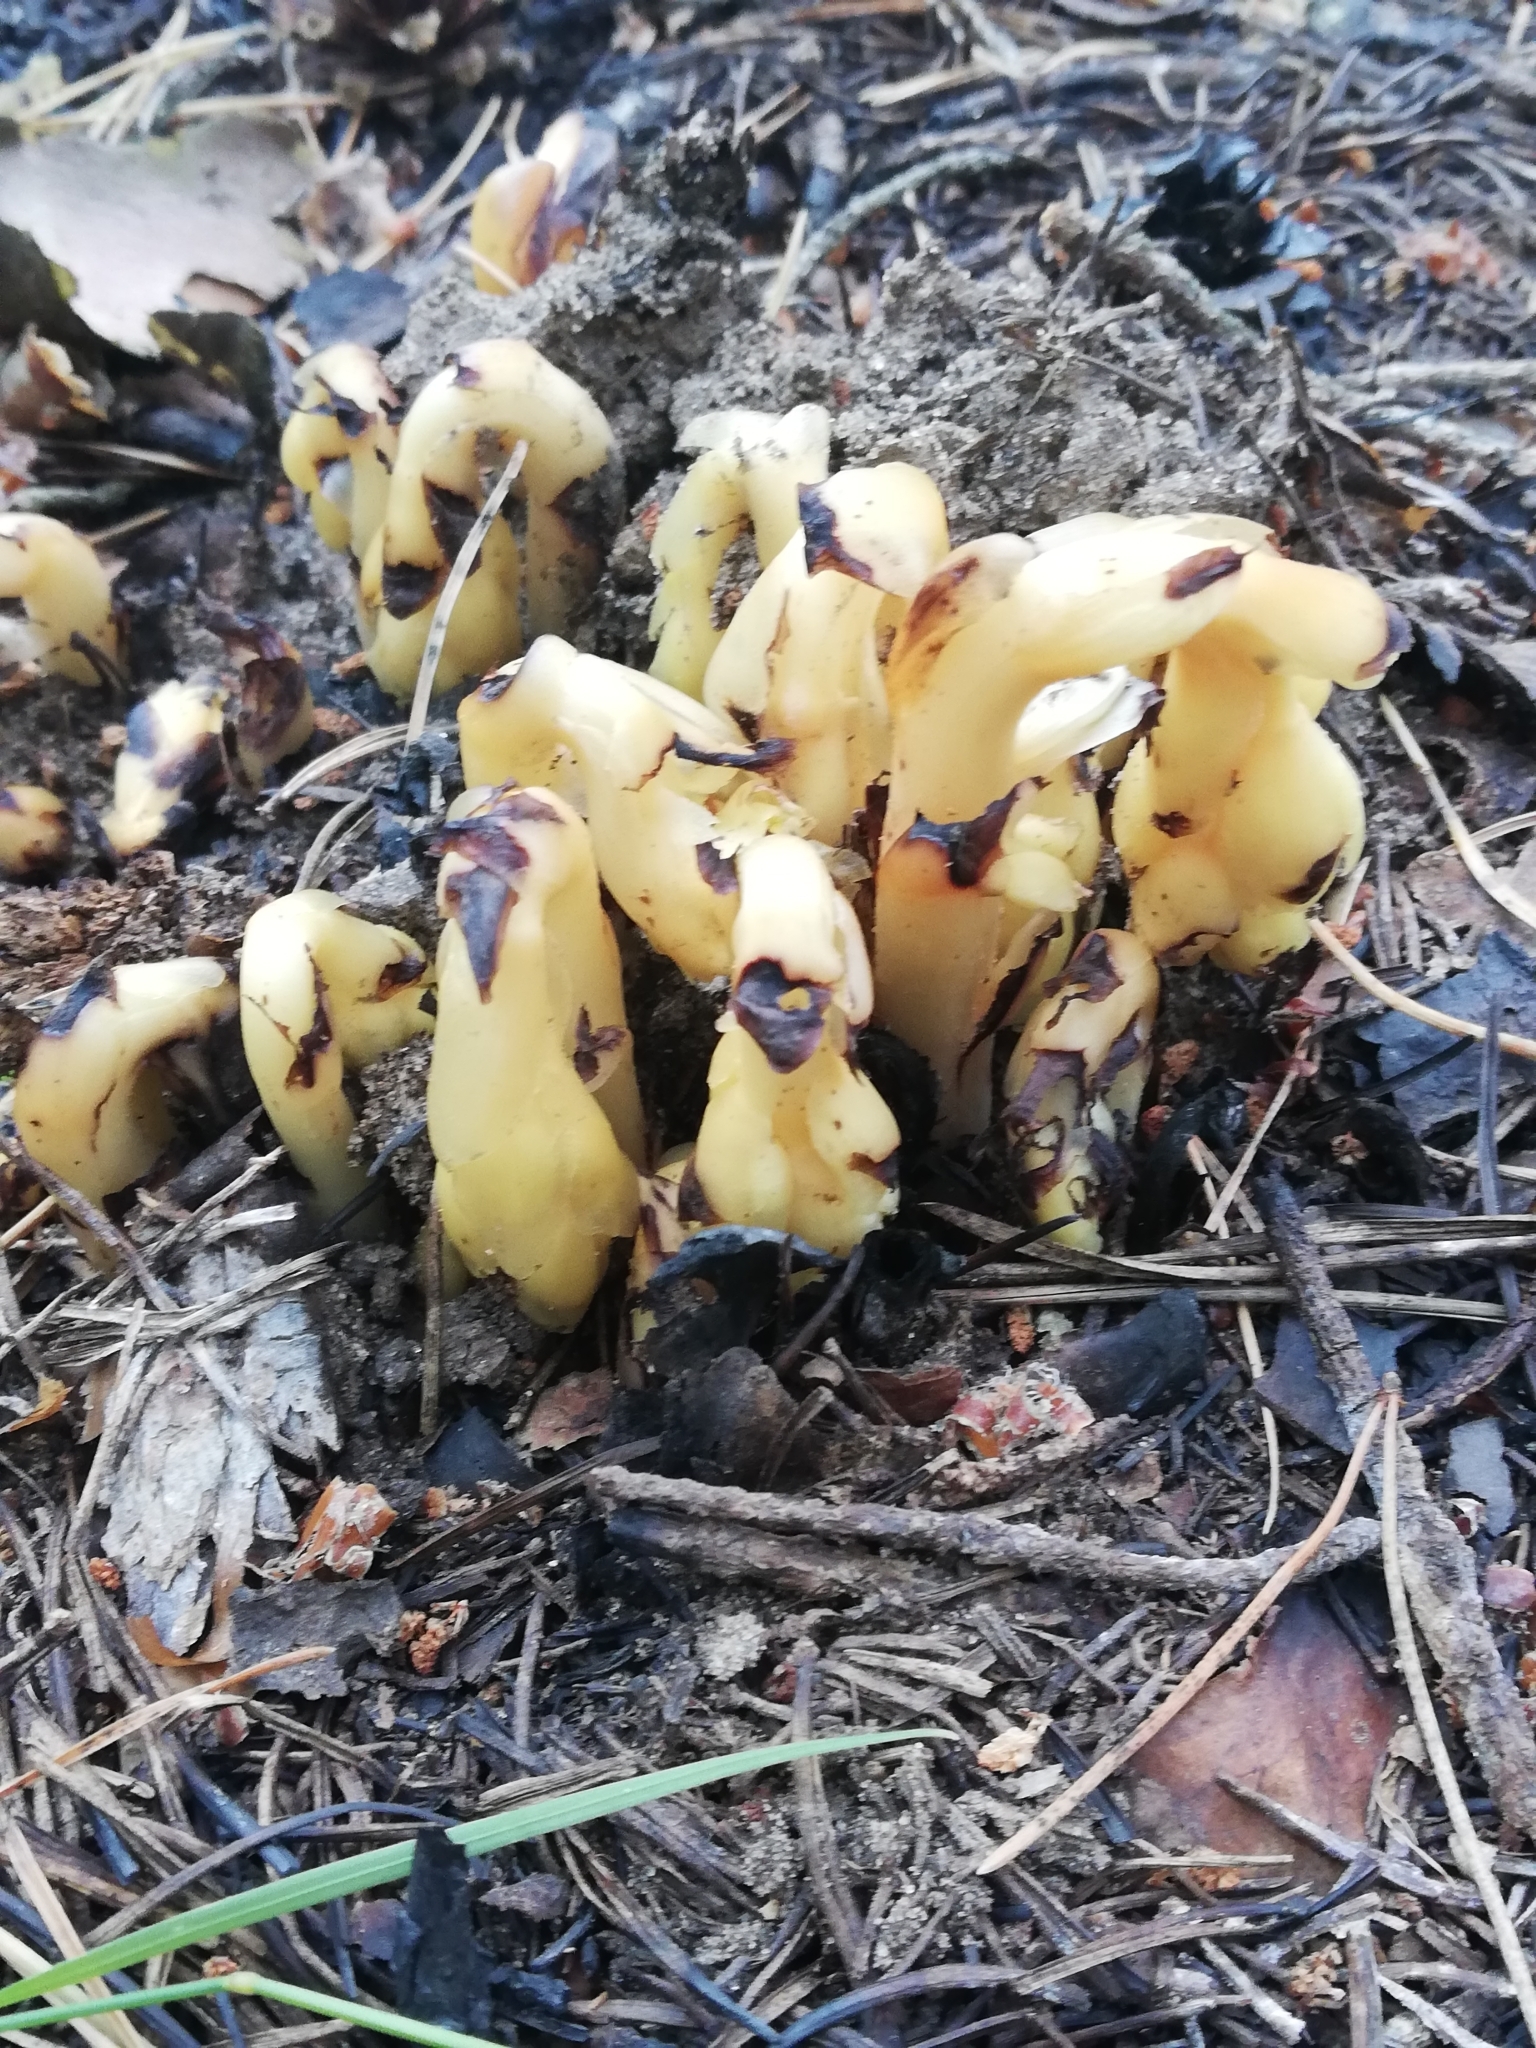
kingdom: Plantae
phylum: Tracheophyta
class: Magnoliopsida
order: Ericales
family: Ericaceae
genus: Hypopitys
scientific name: Hypopitys monotropa
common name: Yellow bird's-nest
